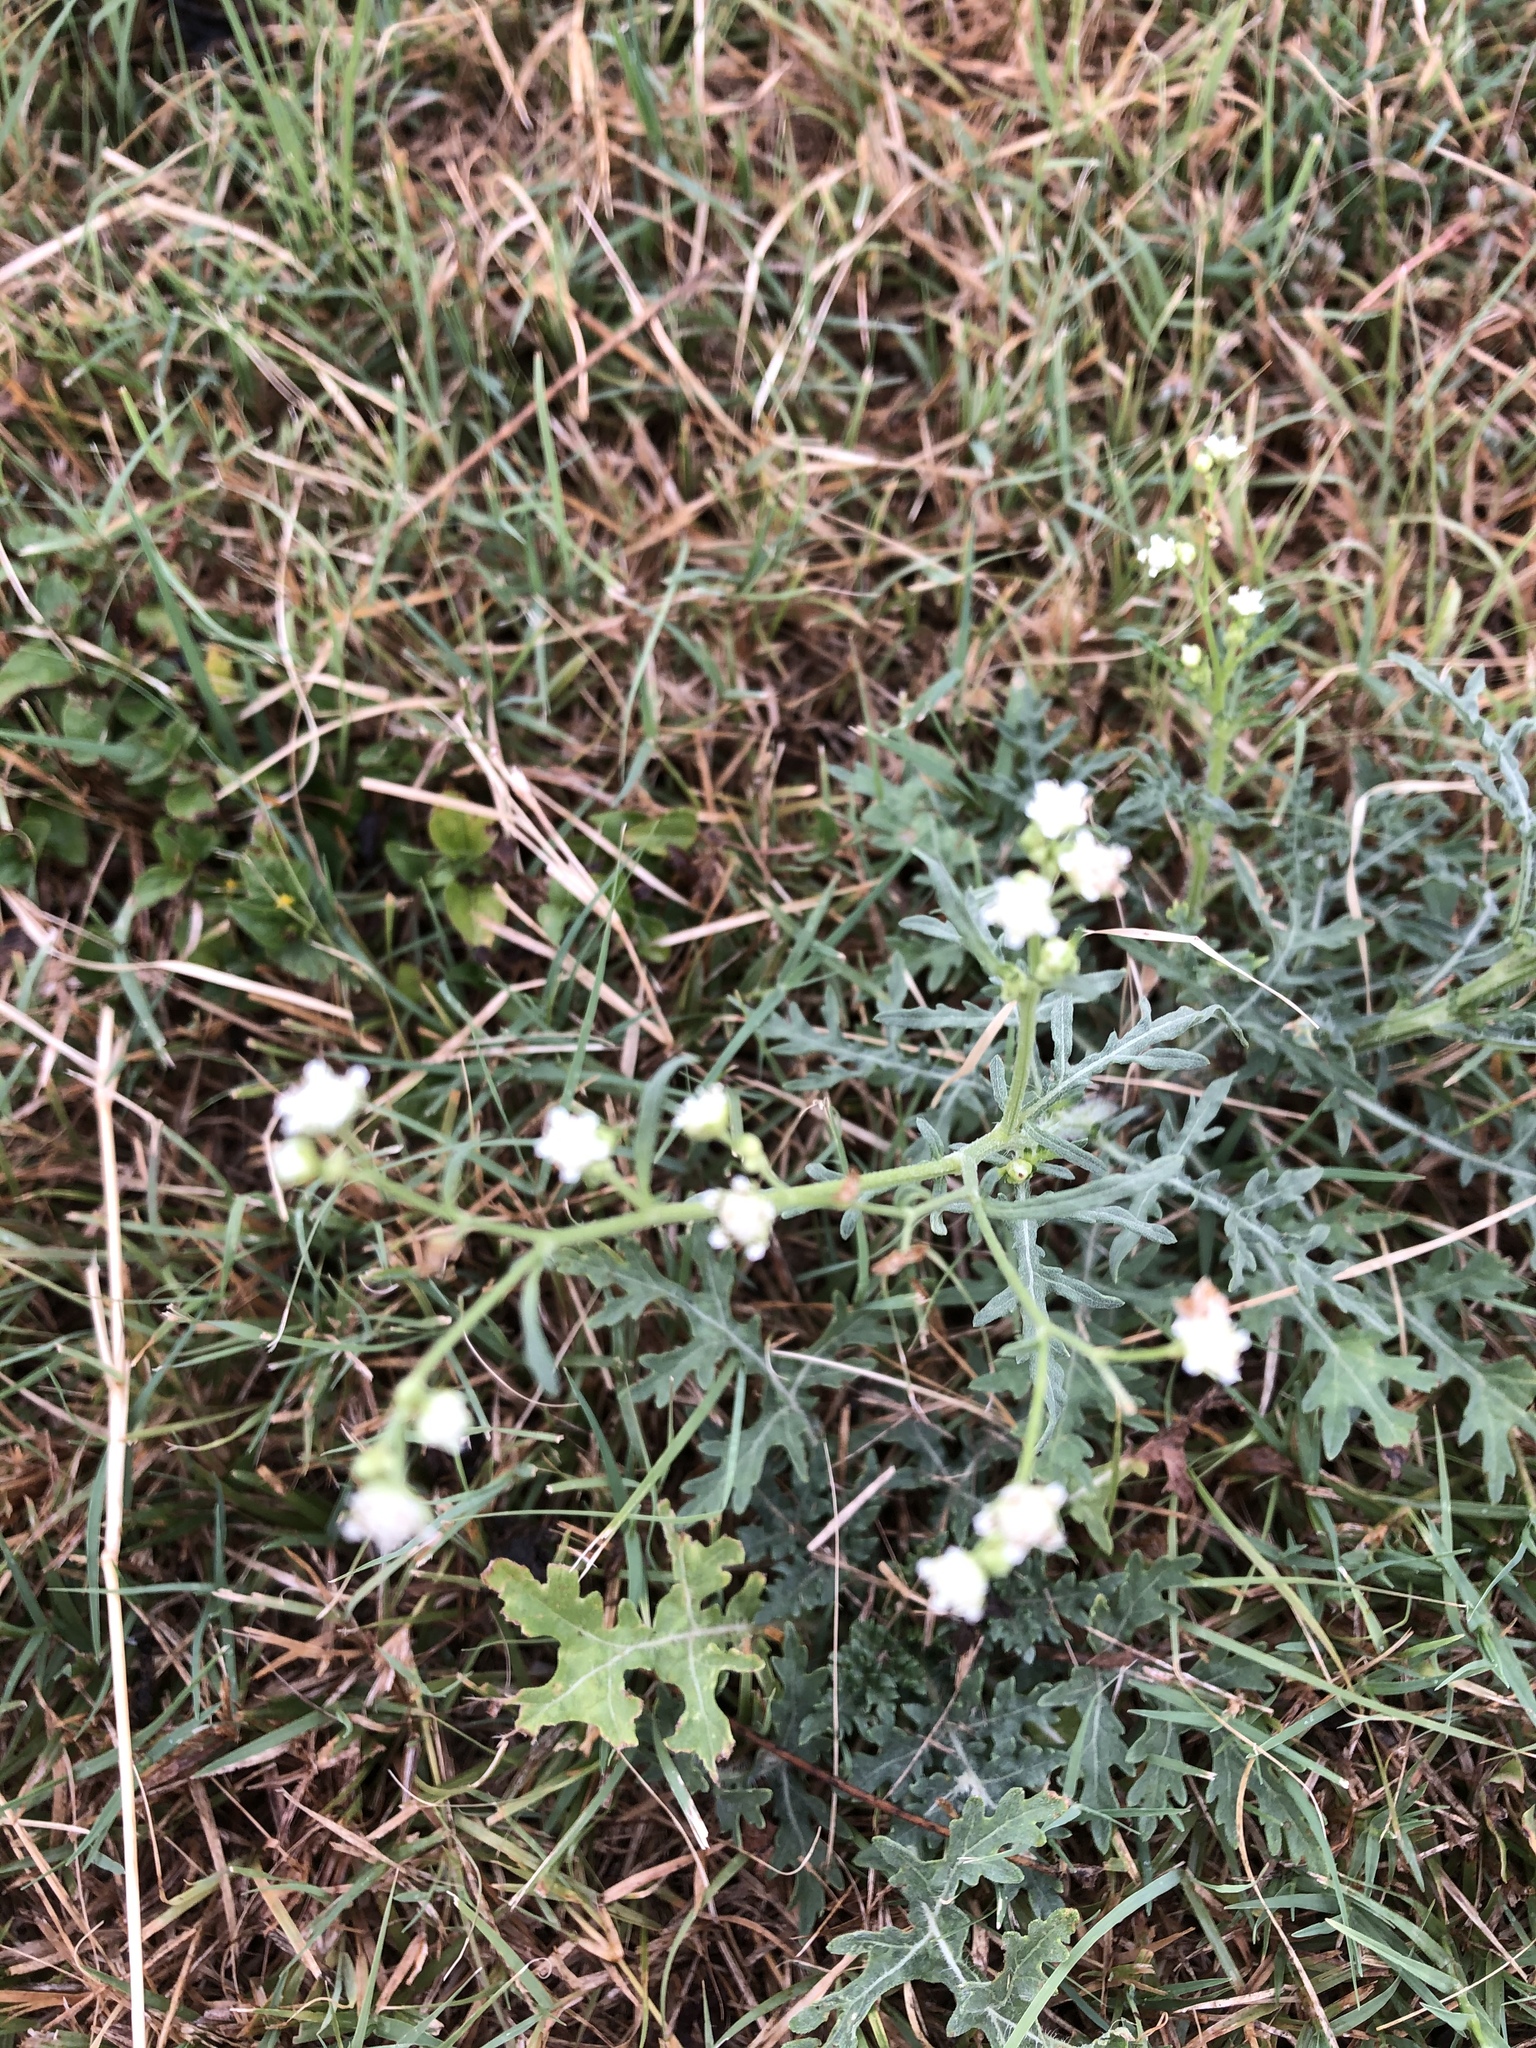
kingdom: Plantae
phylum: Tracheophyta
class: Magnoliopsida
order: Asterales
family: Asteraceae
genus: Parthenium
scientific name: Parthenium hysterophorus
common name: Santa maria feverfew
